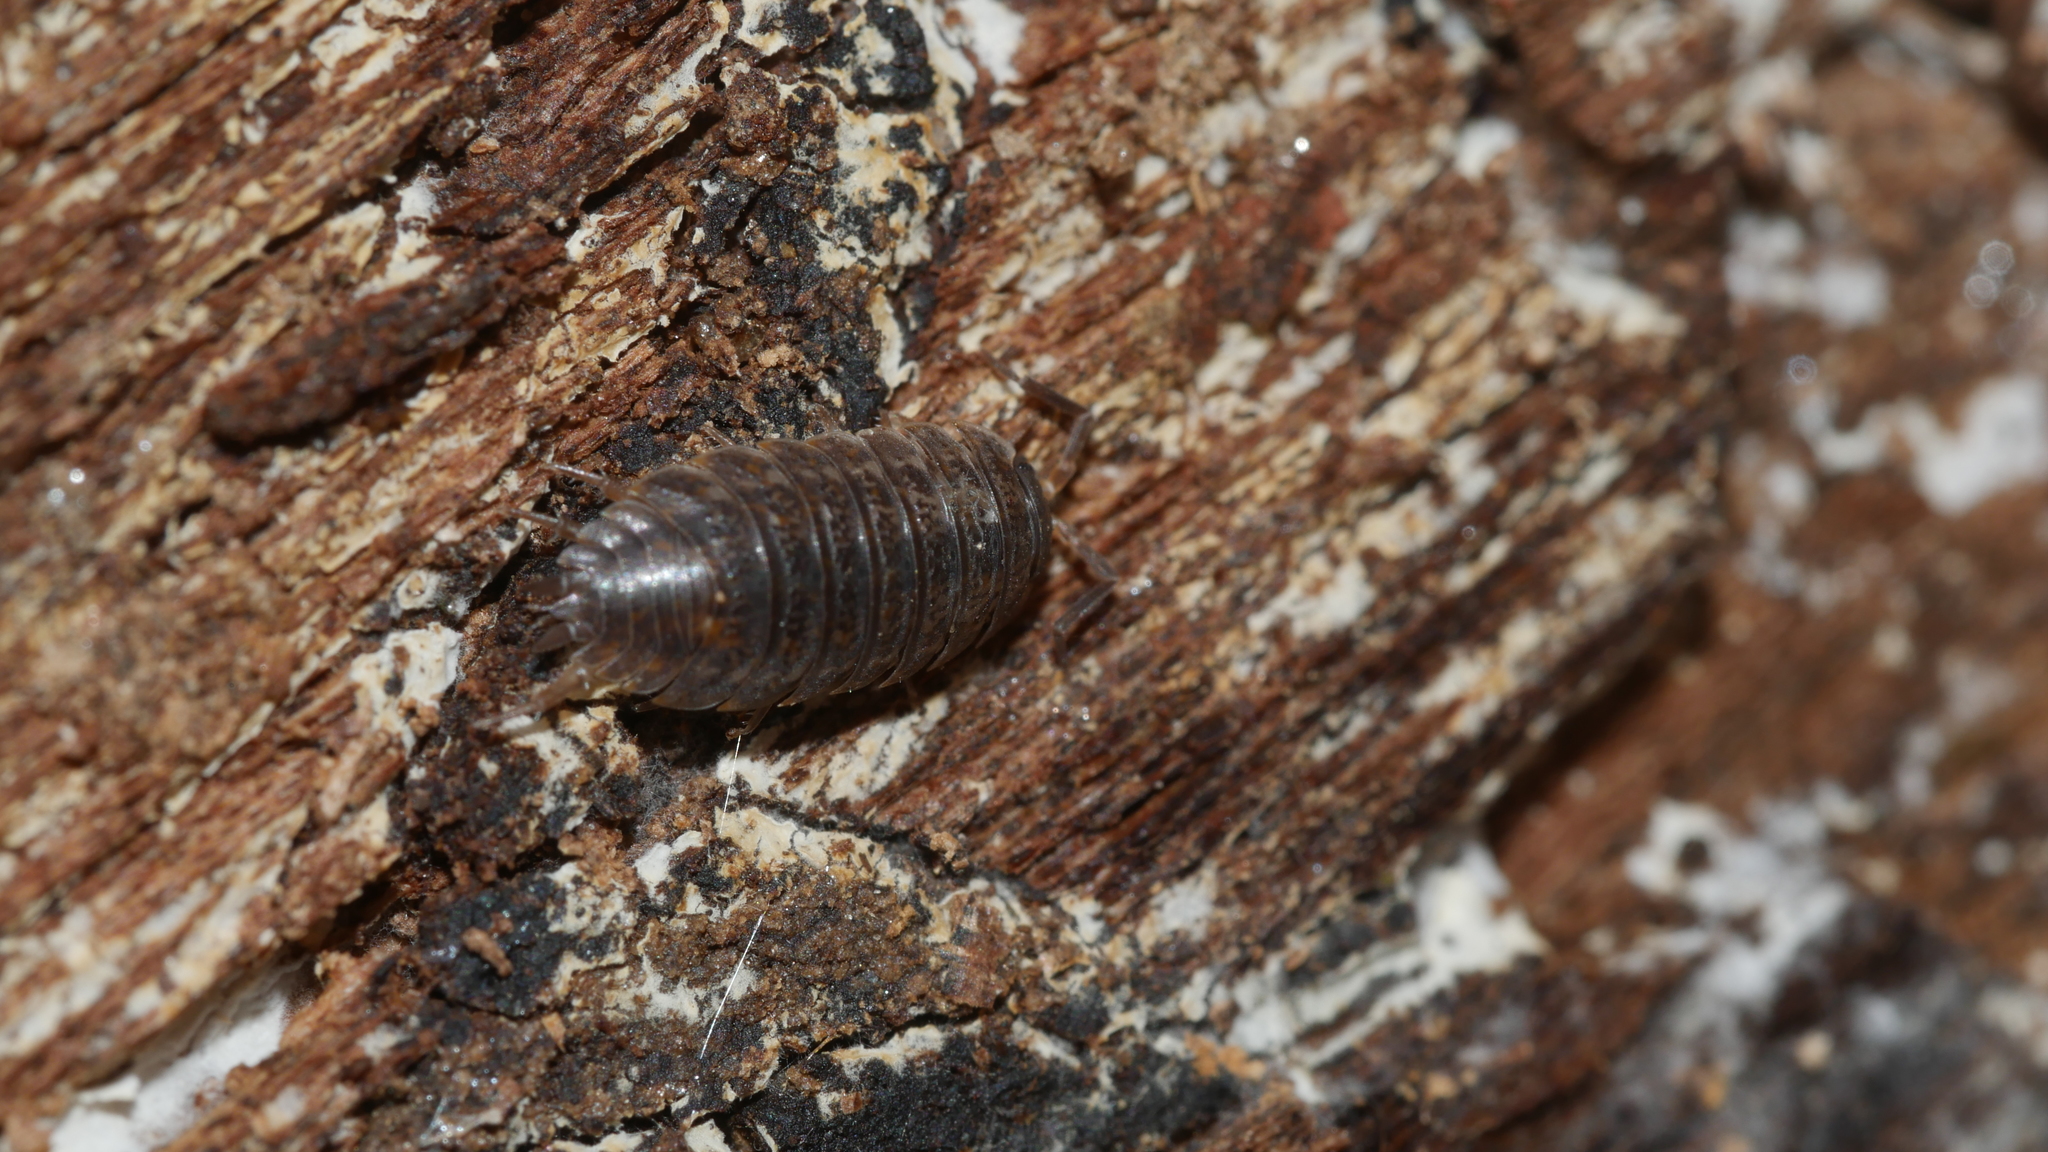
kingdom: Animalia
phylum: Arthropoda
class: Malacostraca
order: Isopoda
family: Trachelipodidae
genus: Trachelipus
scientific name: Trachelipus rathkii
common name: Isopod
